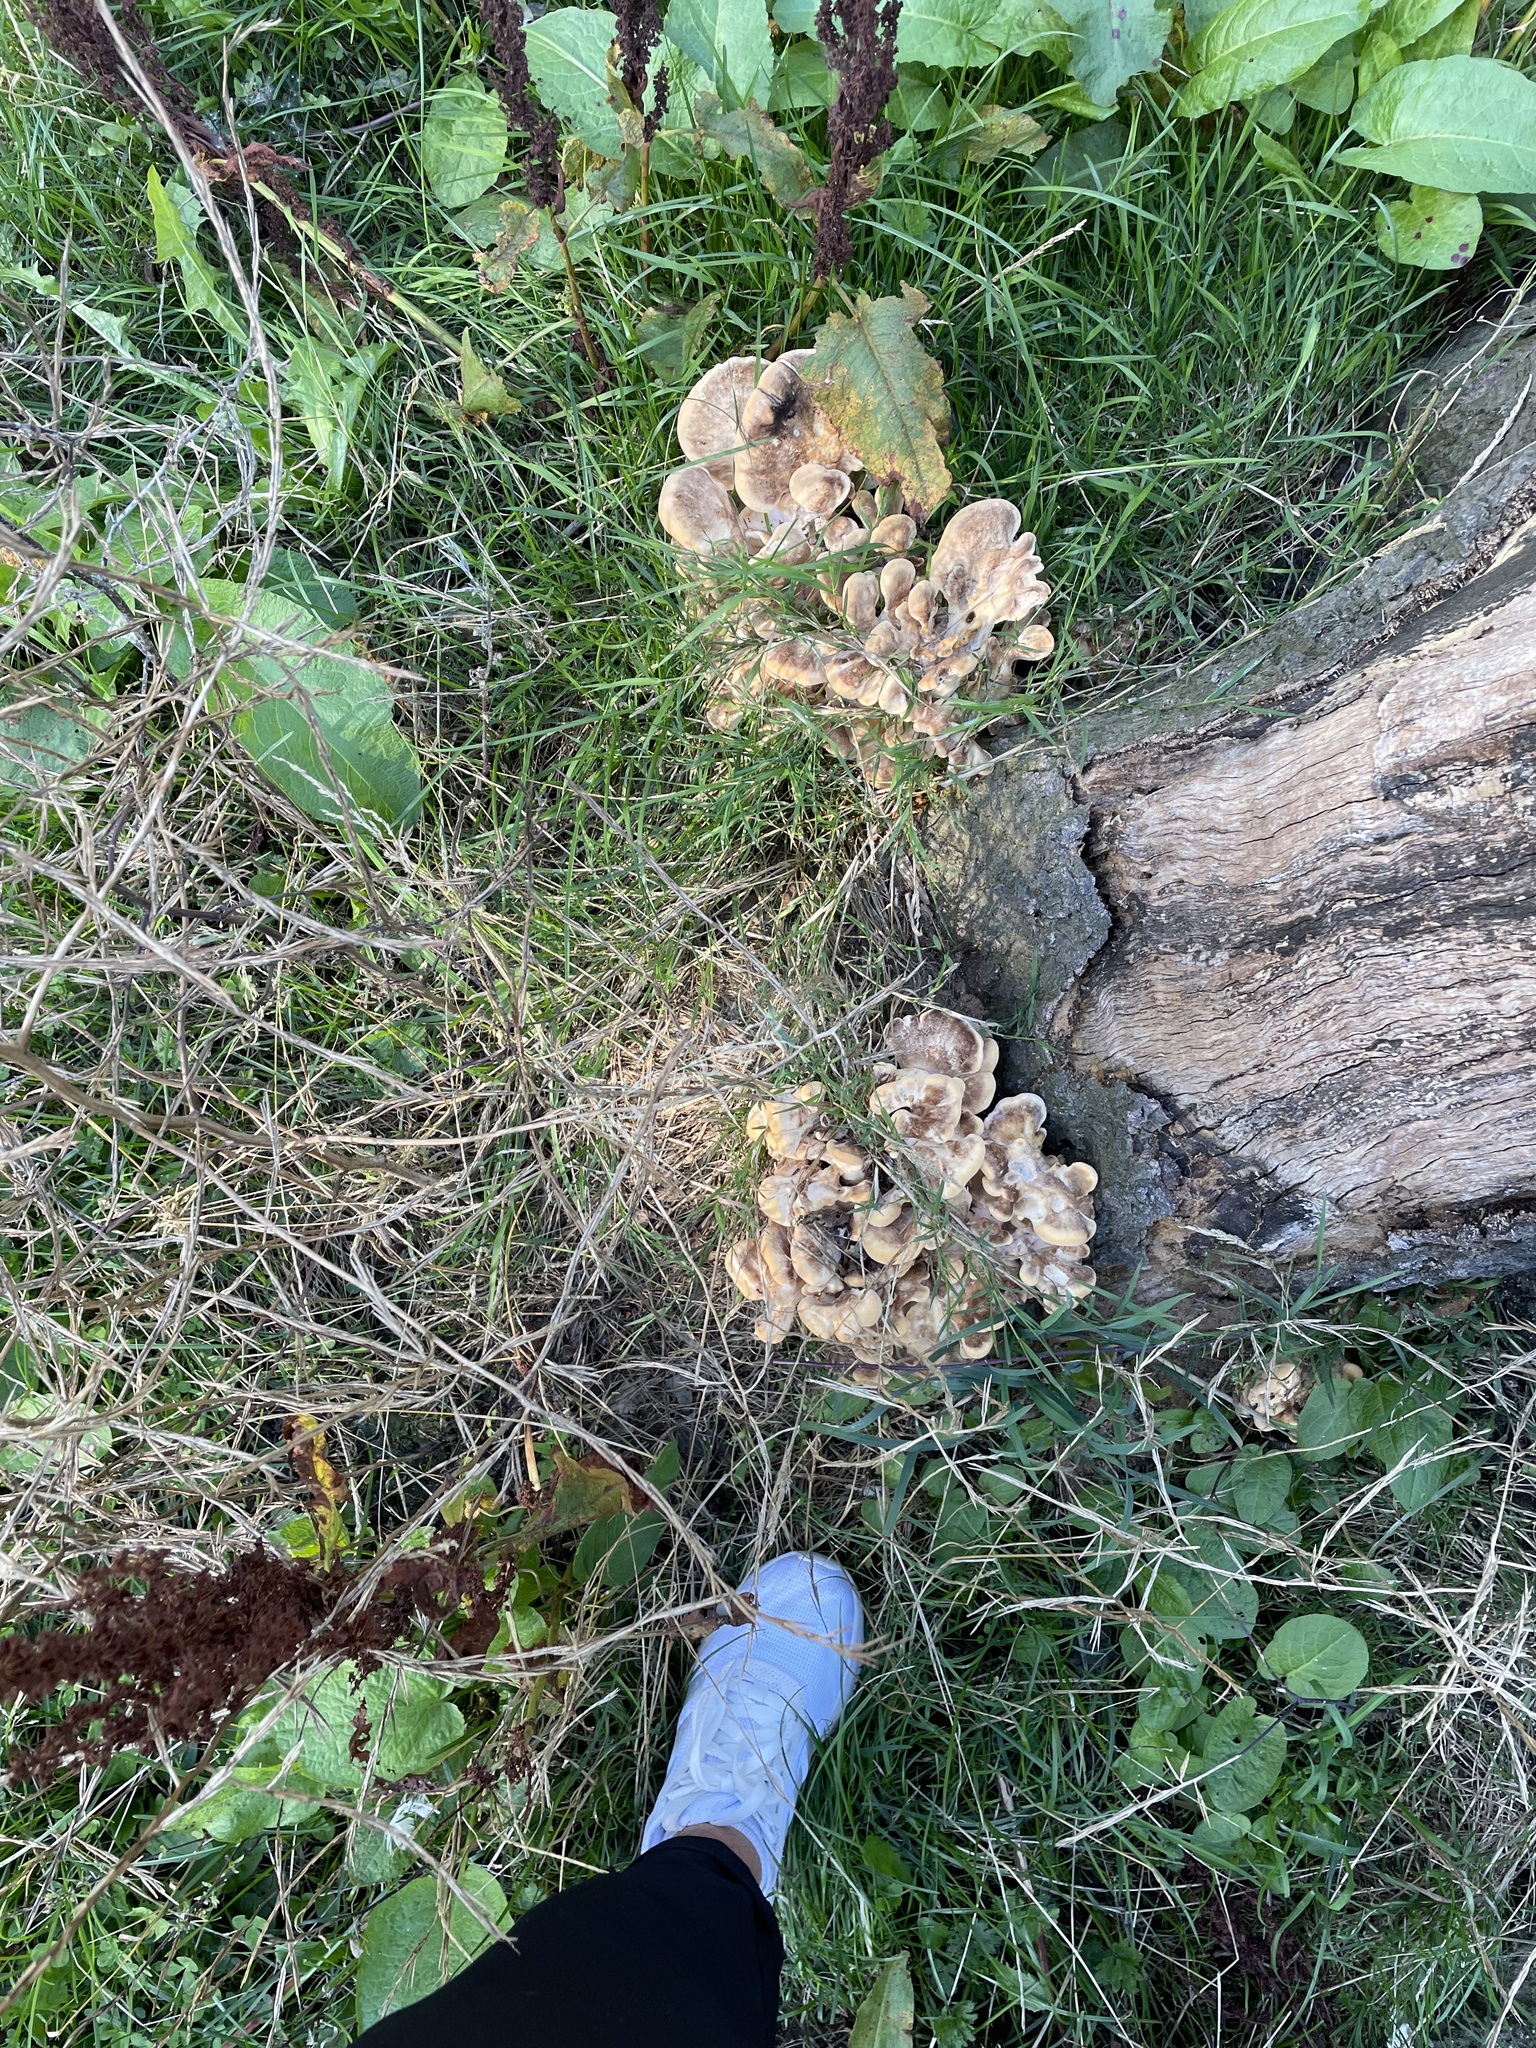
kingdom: Fungi
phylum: Basidiomycota
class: Agaricomycetes
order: Polyporales
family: Meripilaceae
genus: Meripilus
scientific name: Meripilus giganteus
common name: Giant polypore
